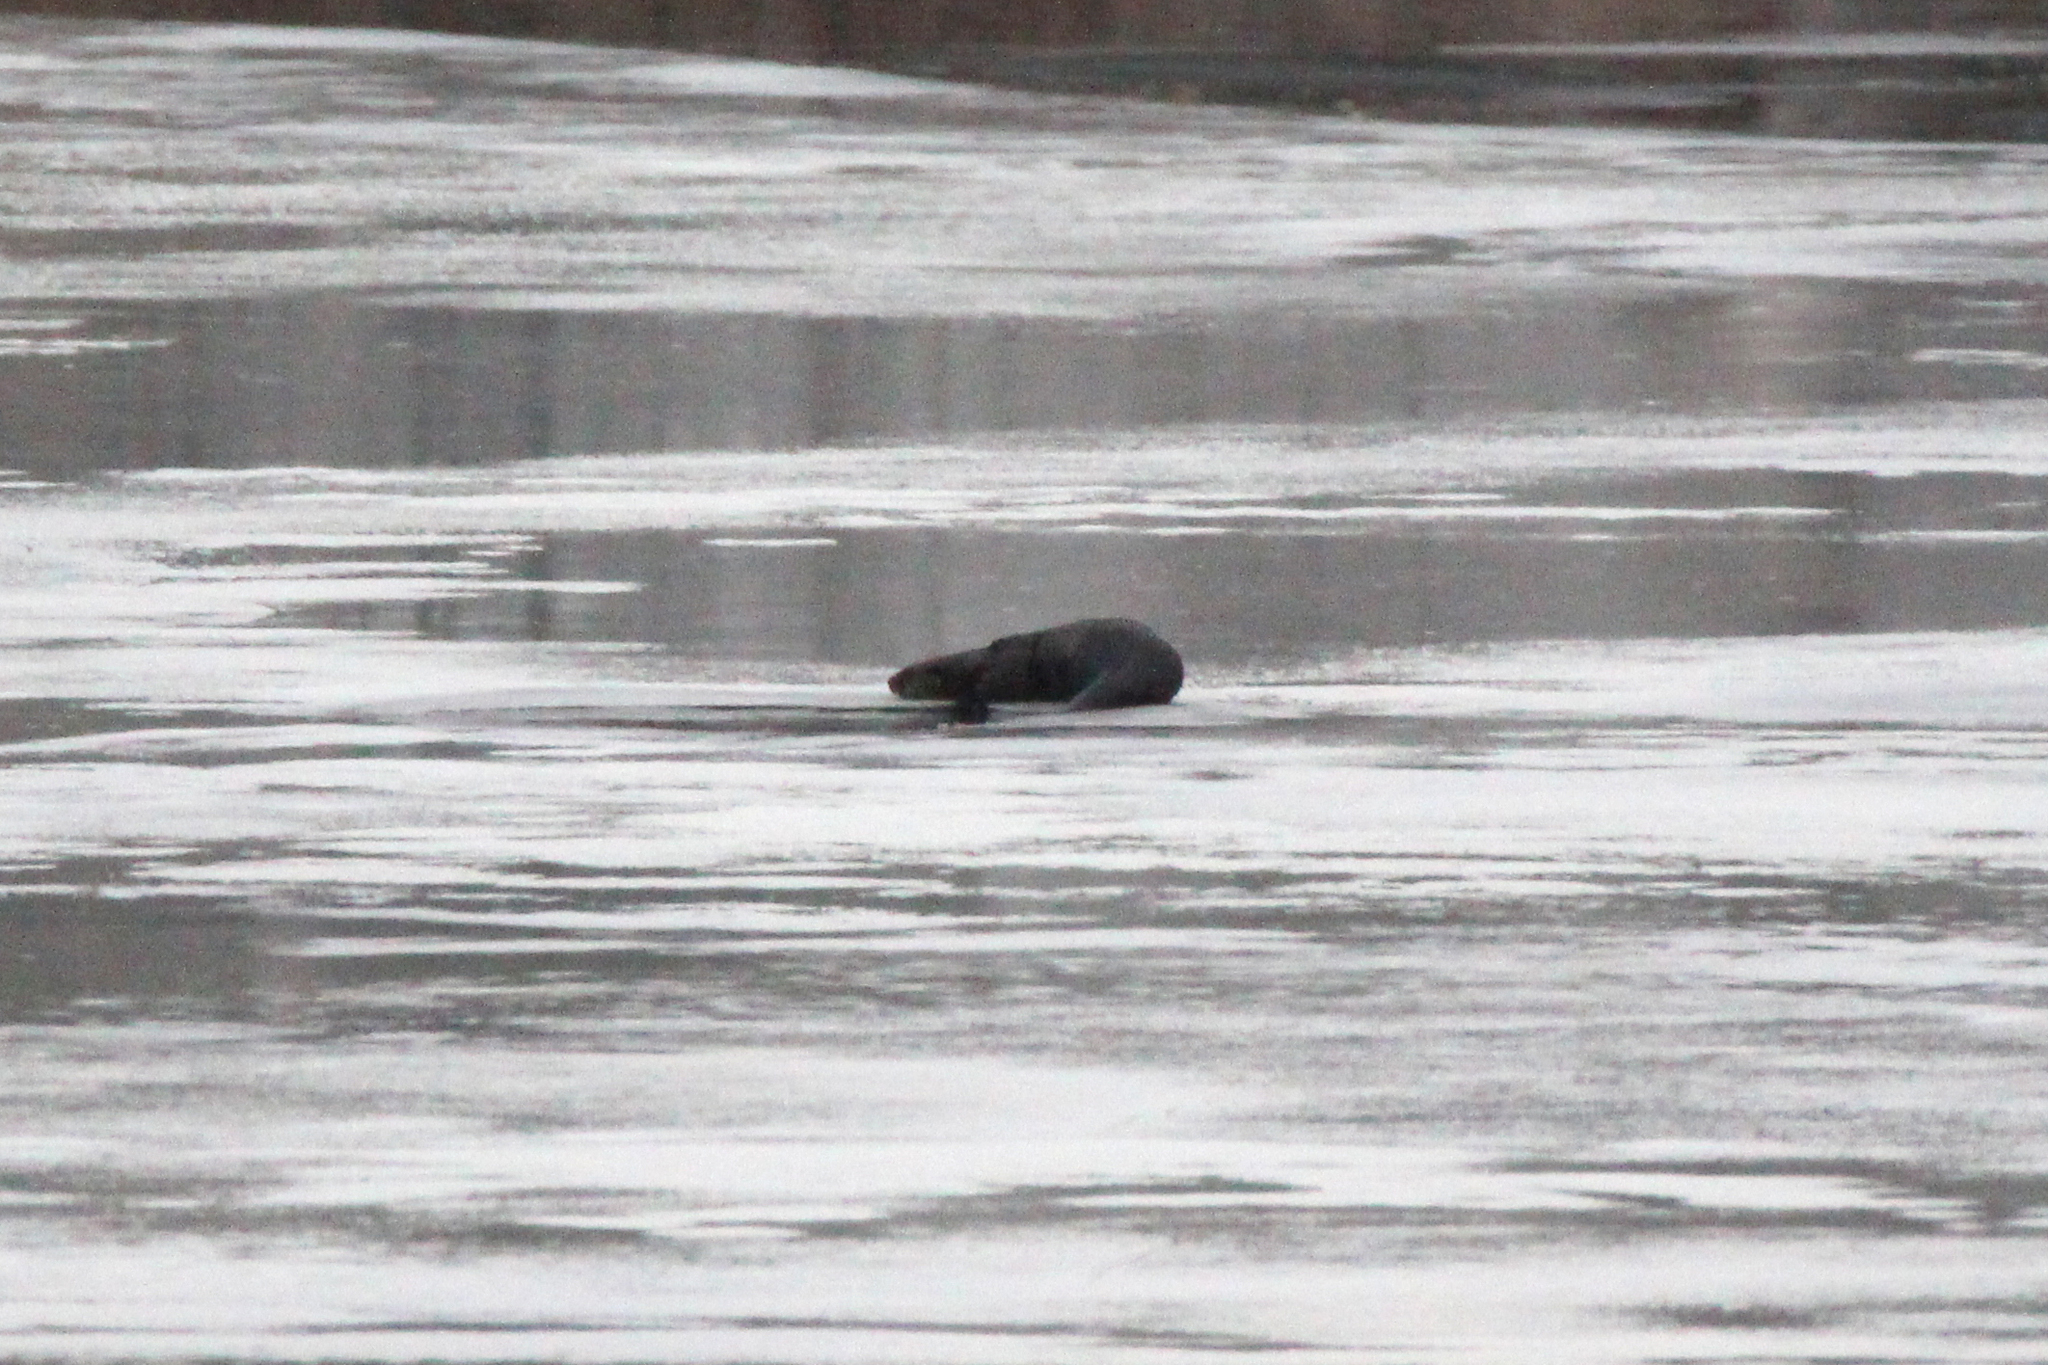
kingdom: Animalia
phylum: Chordata
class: Mammalia
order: Carnivora
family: Mustelidae
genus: Lontra
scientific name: Lontra canadensis
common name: North american river otter
